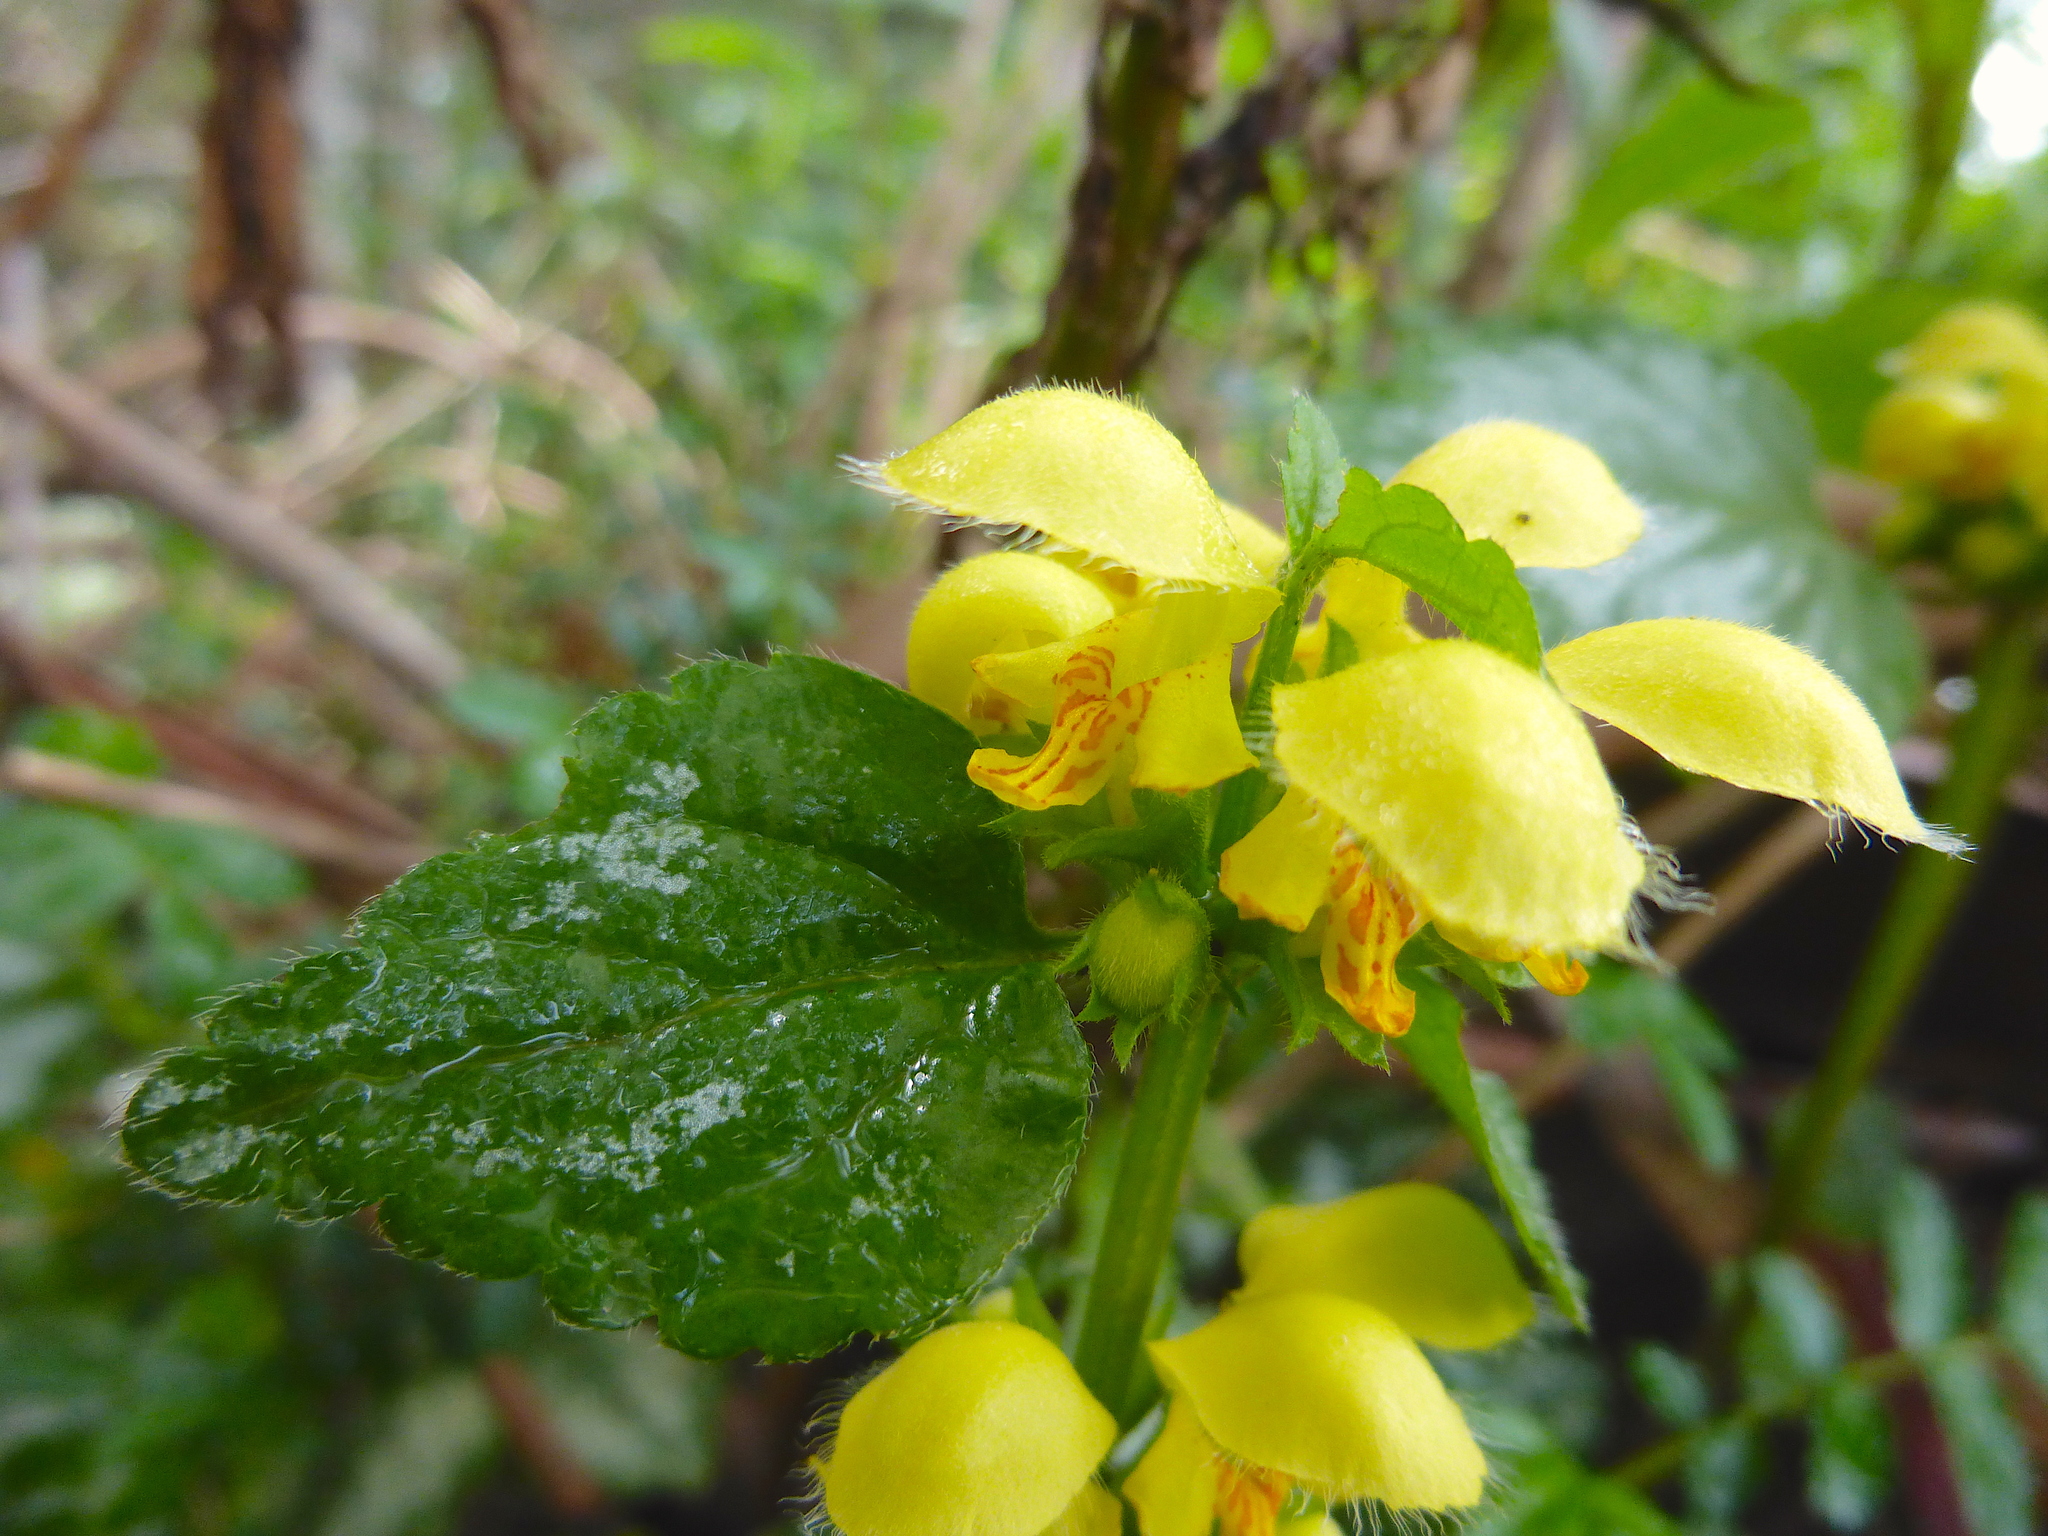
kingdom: Plantae
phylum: Tracheophyta
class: Magnoliopsida
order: Lamiales
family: Lamiaceae
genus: Lamium
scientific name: Lamium galeobdolon
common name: Yellow archangel
